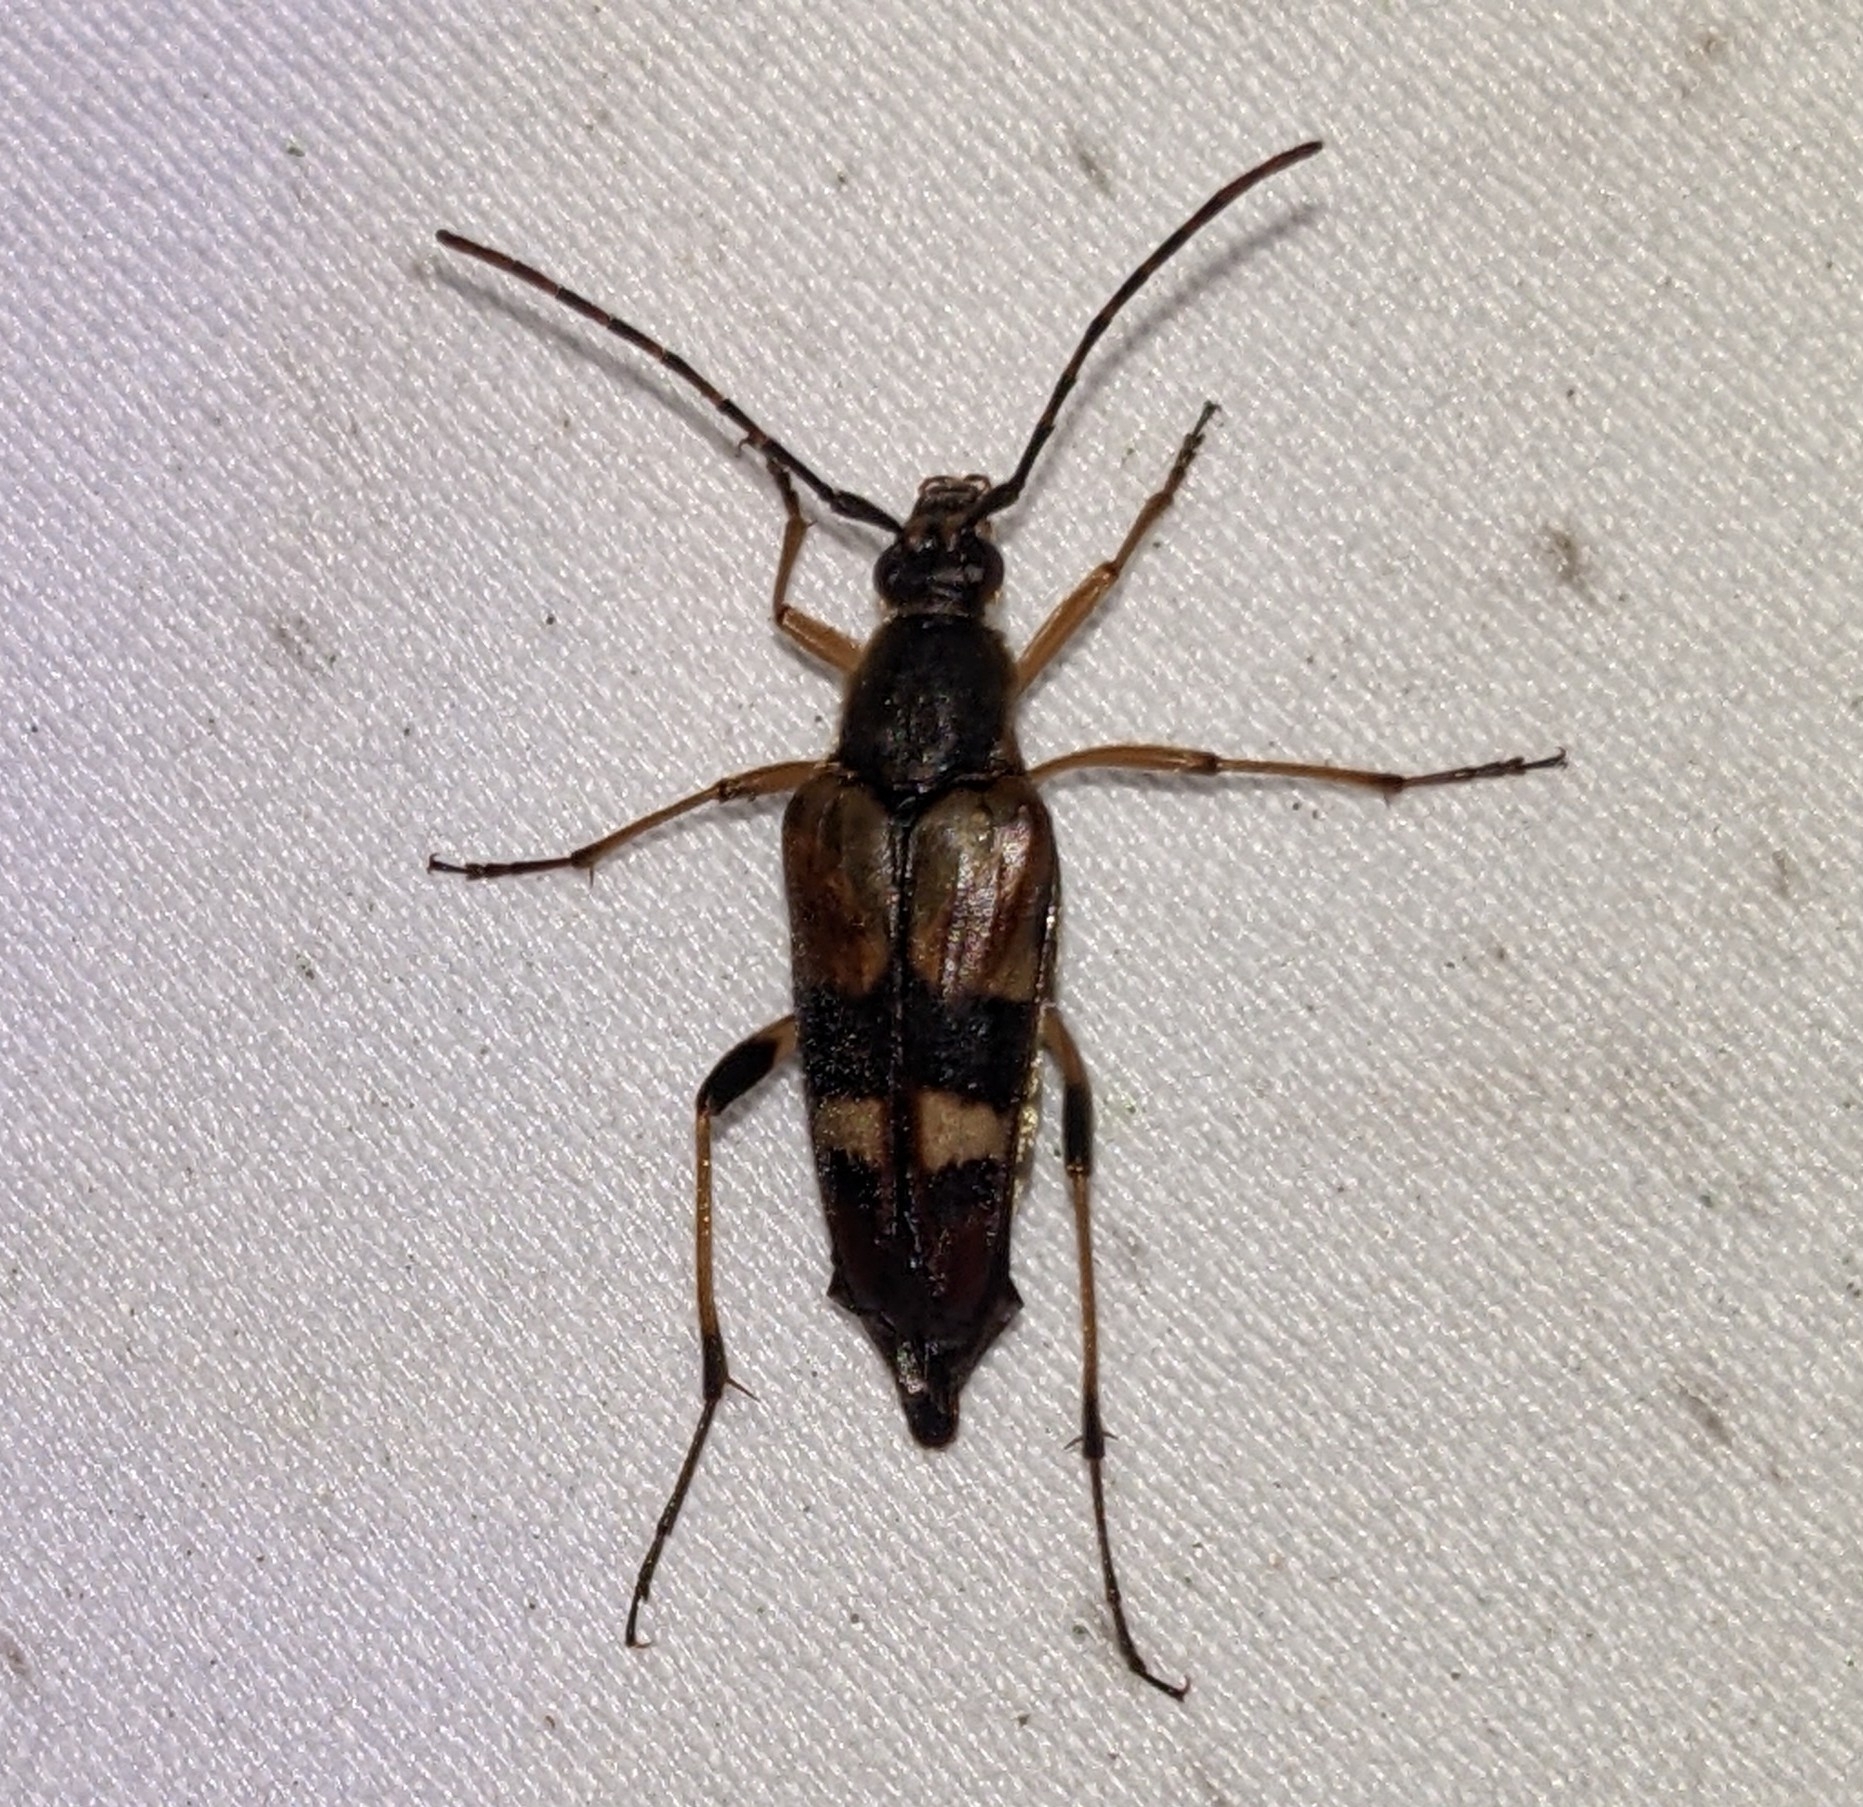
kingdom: Animalia
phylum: Arthropoda
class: Insecta
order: Coleoptera
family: Cerambycidae
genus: Etorofus
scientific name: Etorofus obliteratus
